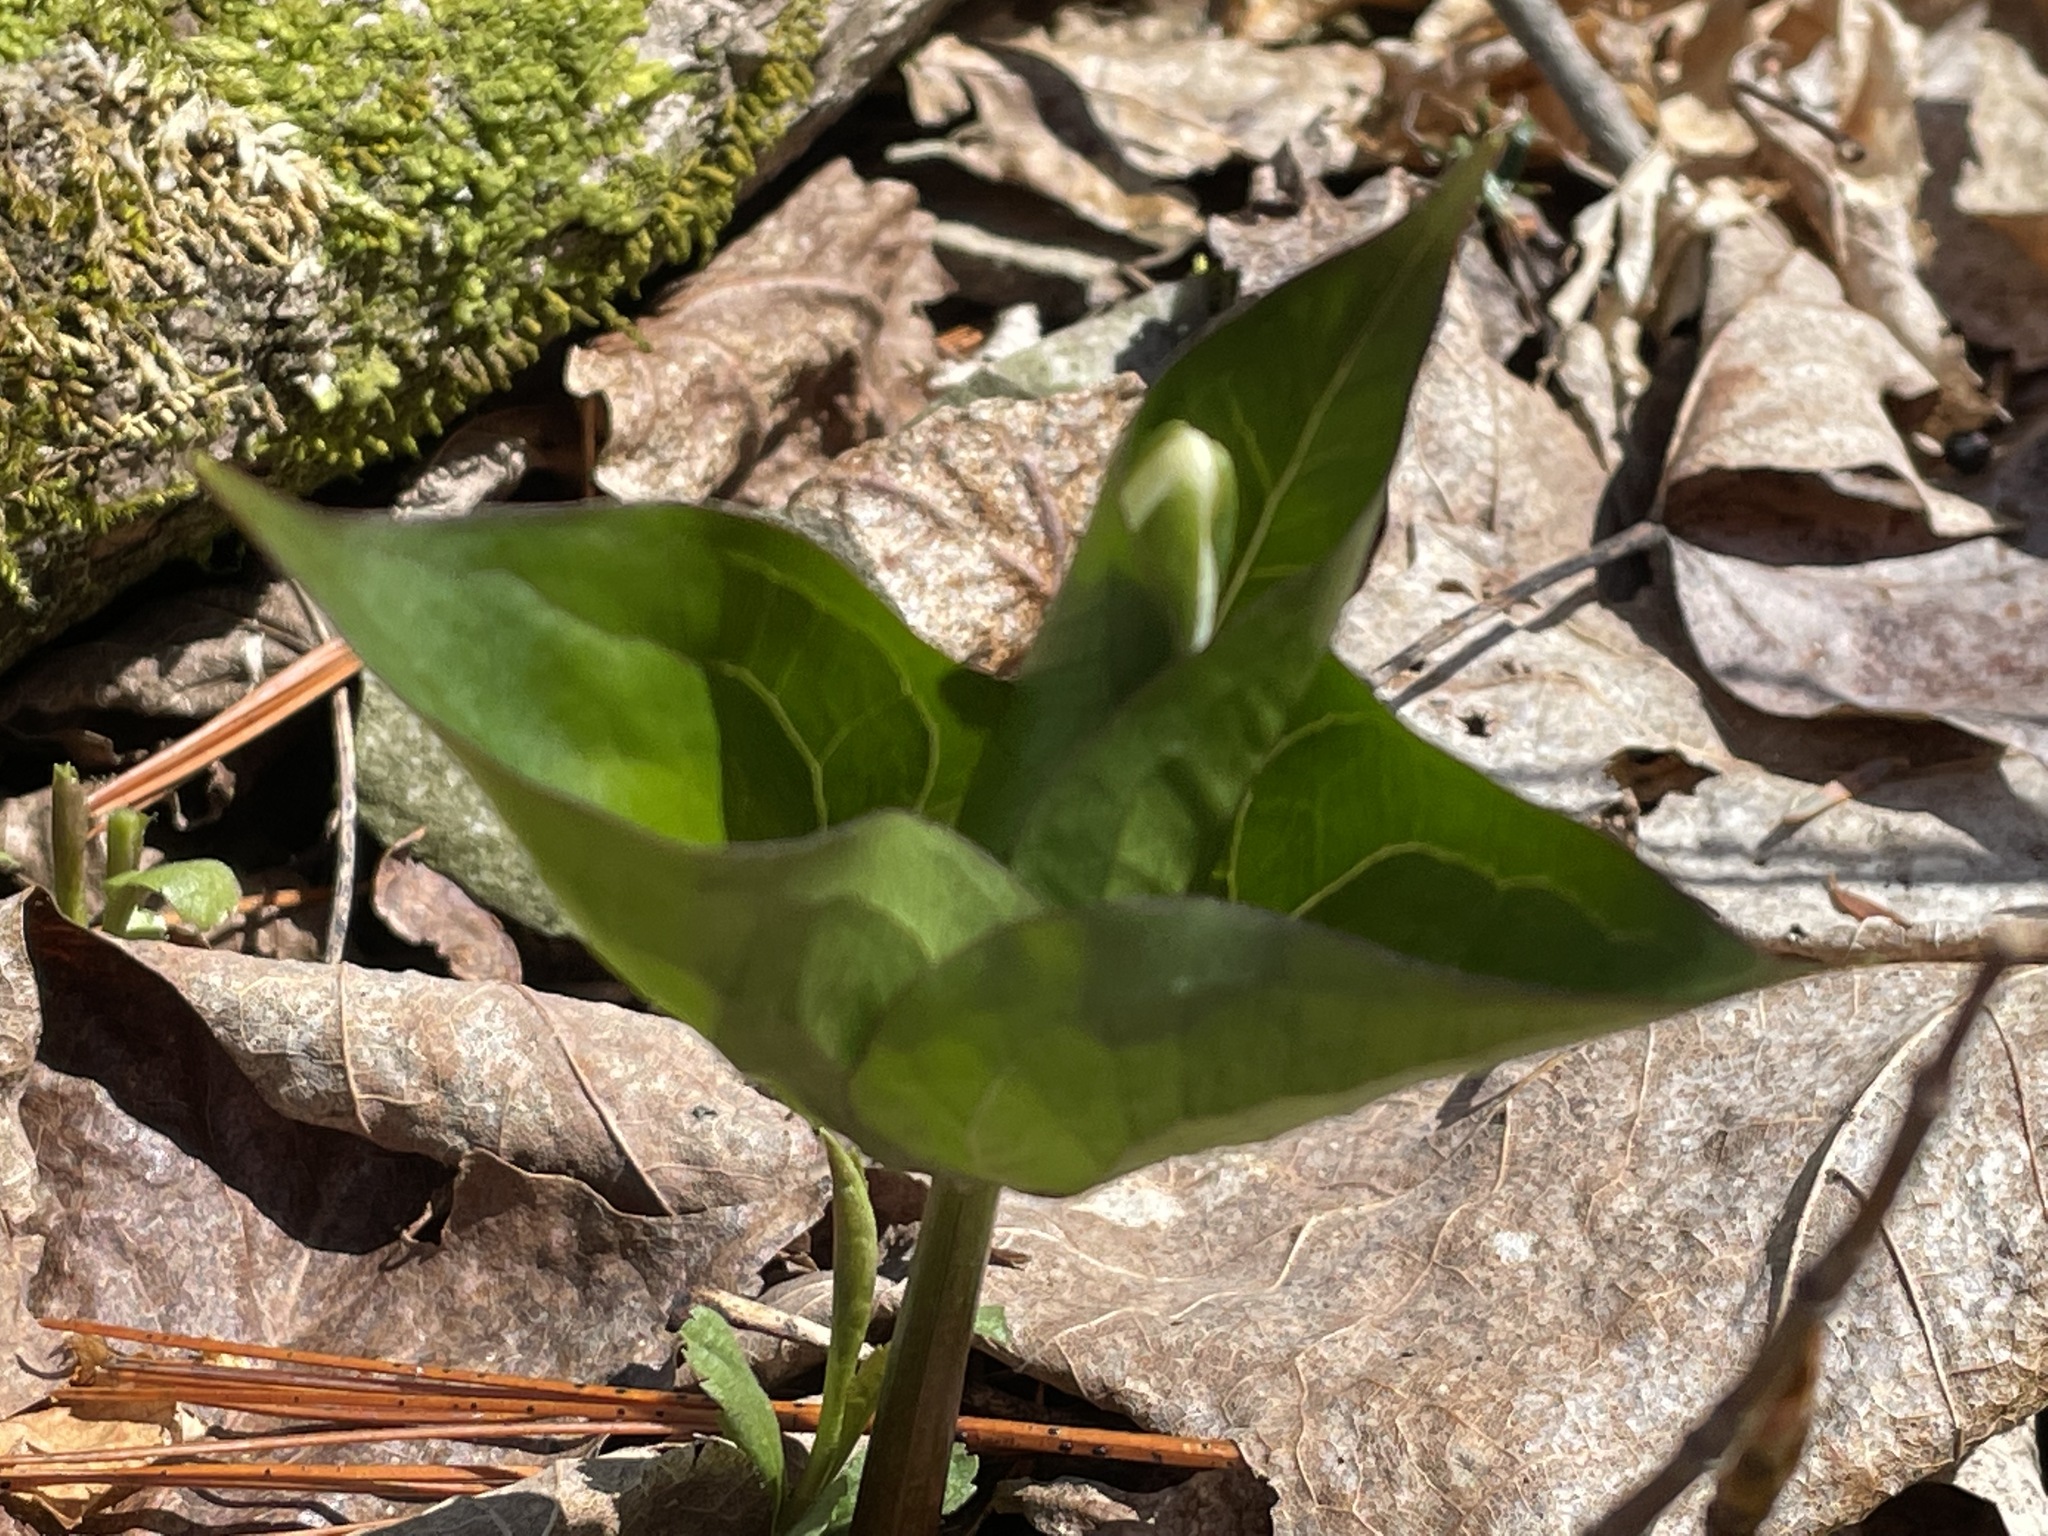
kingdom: Plantae
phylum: Tracheophyta
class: Liliopsida
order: Liliales
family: Melanthiaceae
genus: Trillium
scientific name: Trillium grandiflorum
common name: Great white trillium
